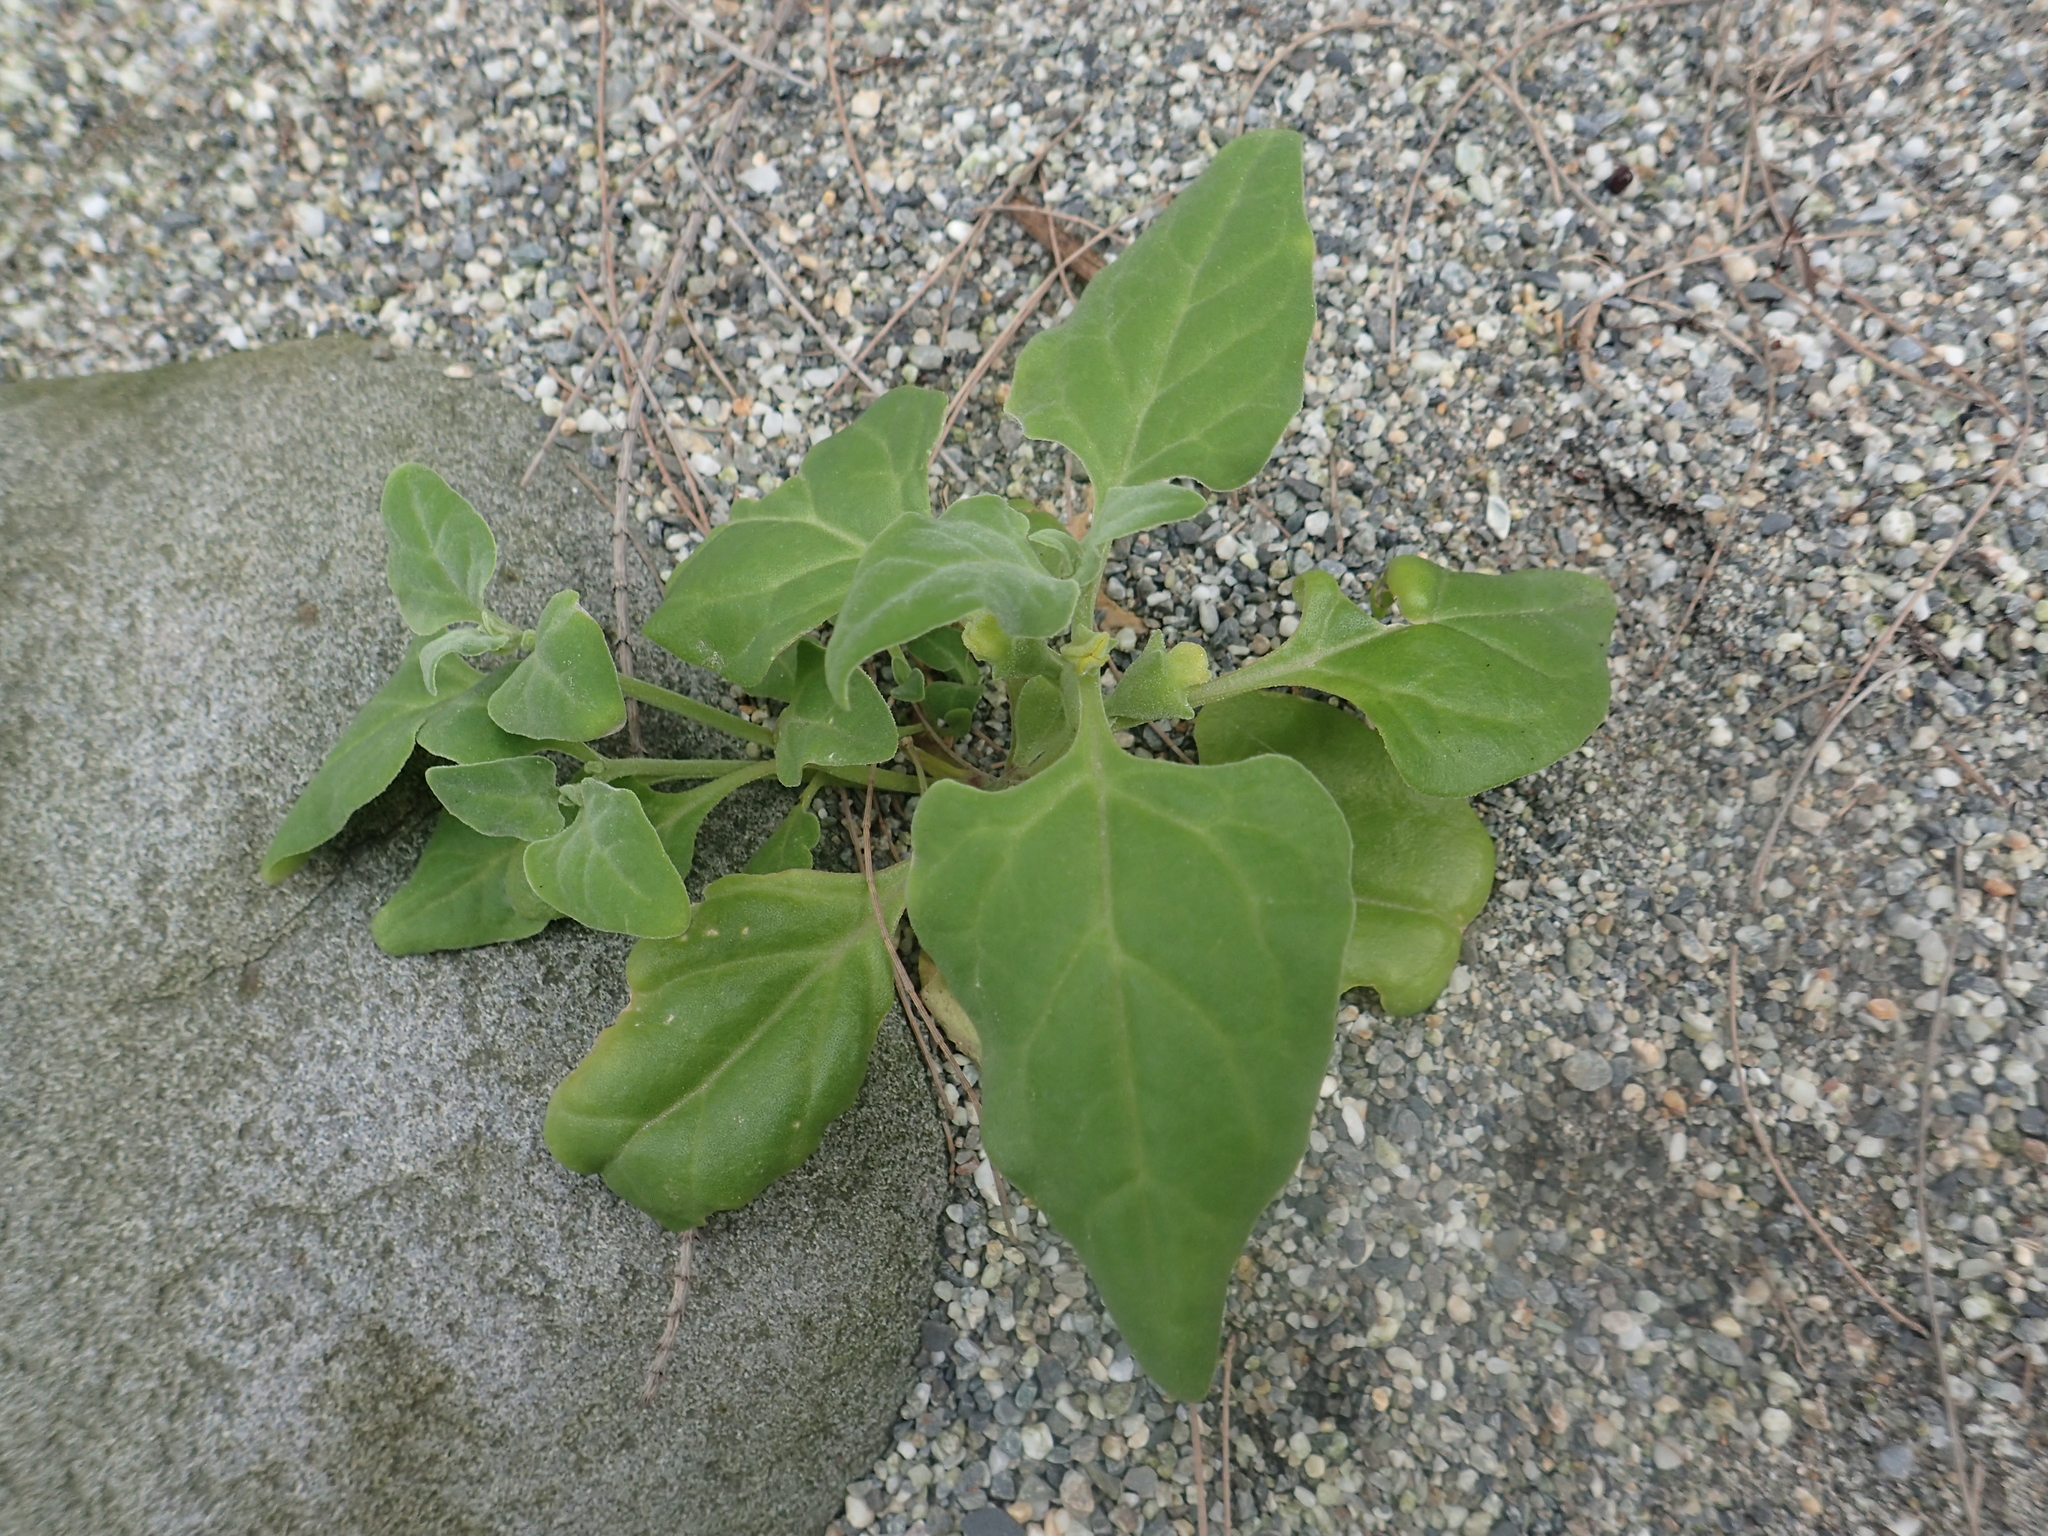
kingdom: Plantae
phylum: Tracheophyta
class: Magnoliopsida
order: Caryophyllales
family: Aizoaceae
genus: Tetragonia
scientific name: Tetragonia tetragonoides
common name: New zealand-spinach
